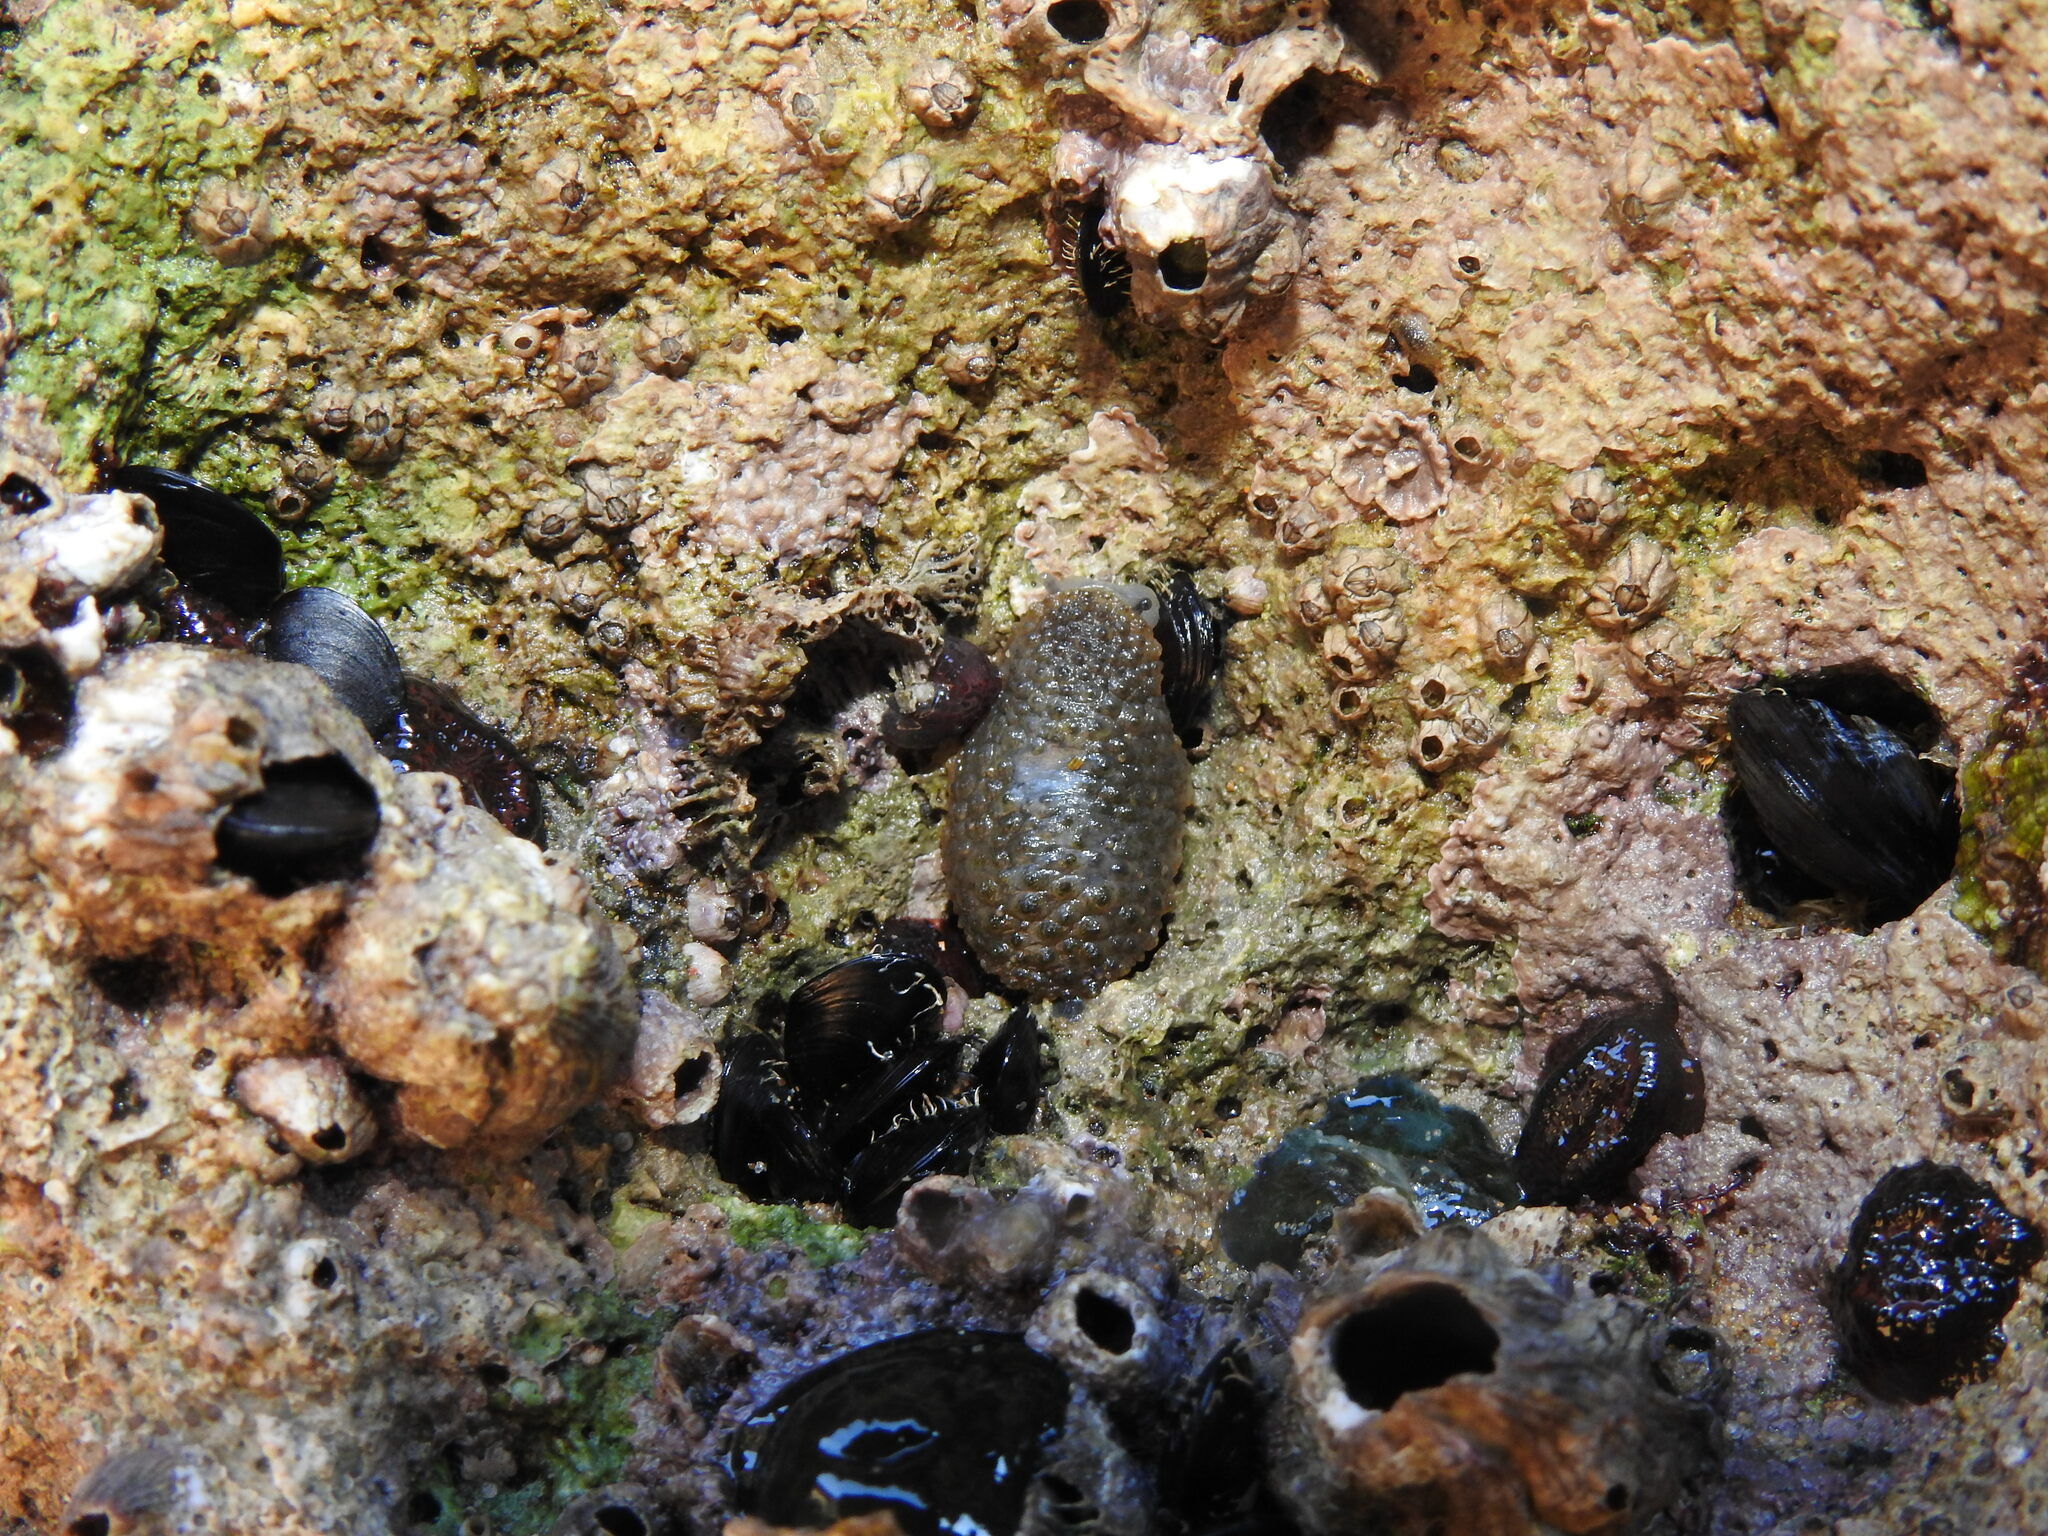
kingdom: Animalia
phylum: Mollusca
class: Gastropoda
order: Systellommatophora
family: Onchidiidae
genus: Onchidella
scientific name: Onchidella celtica
